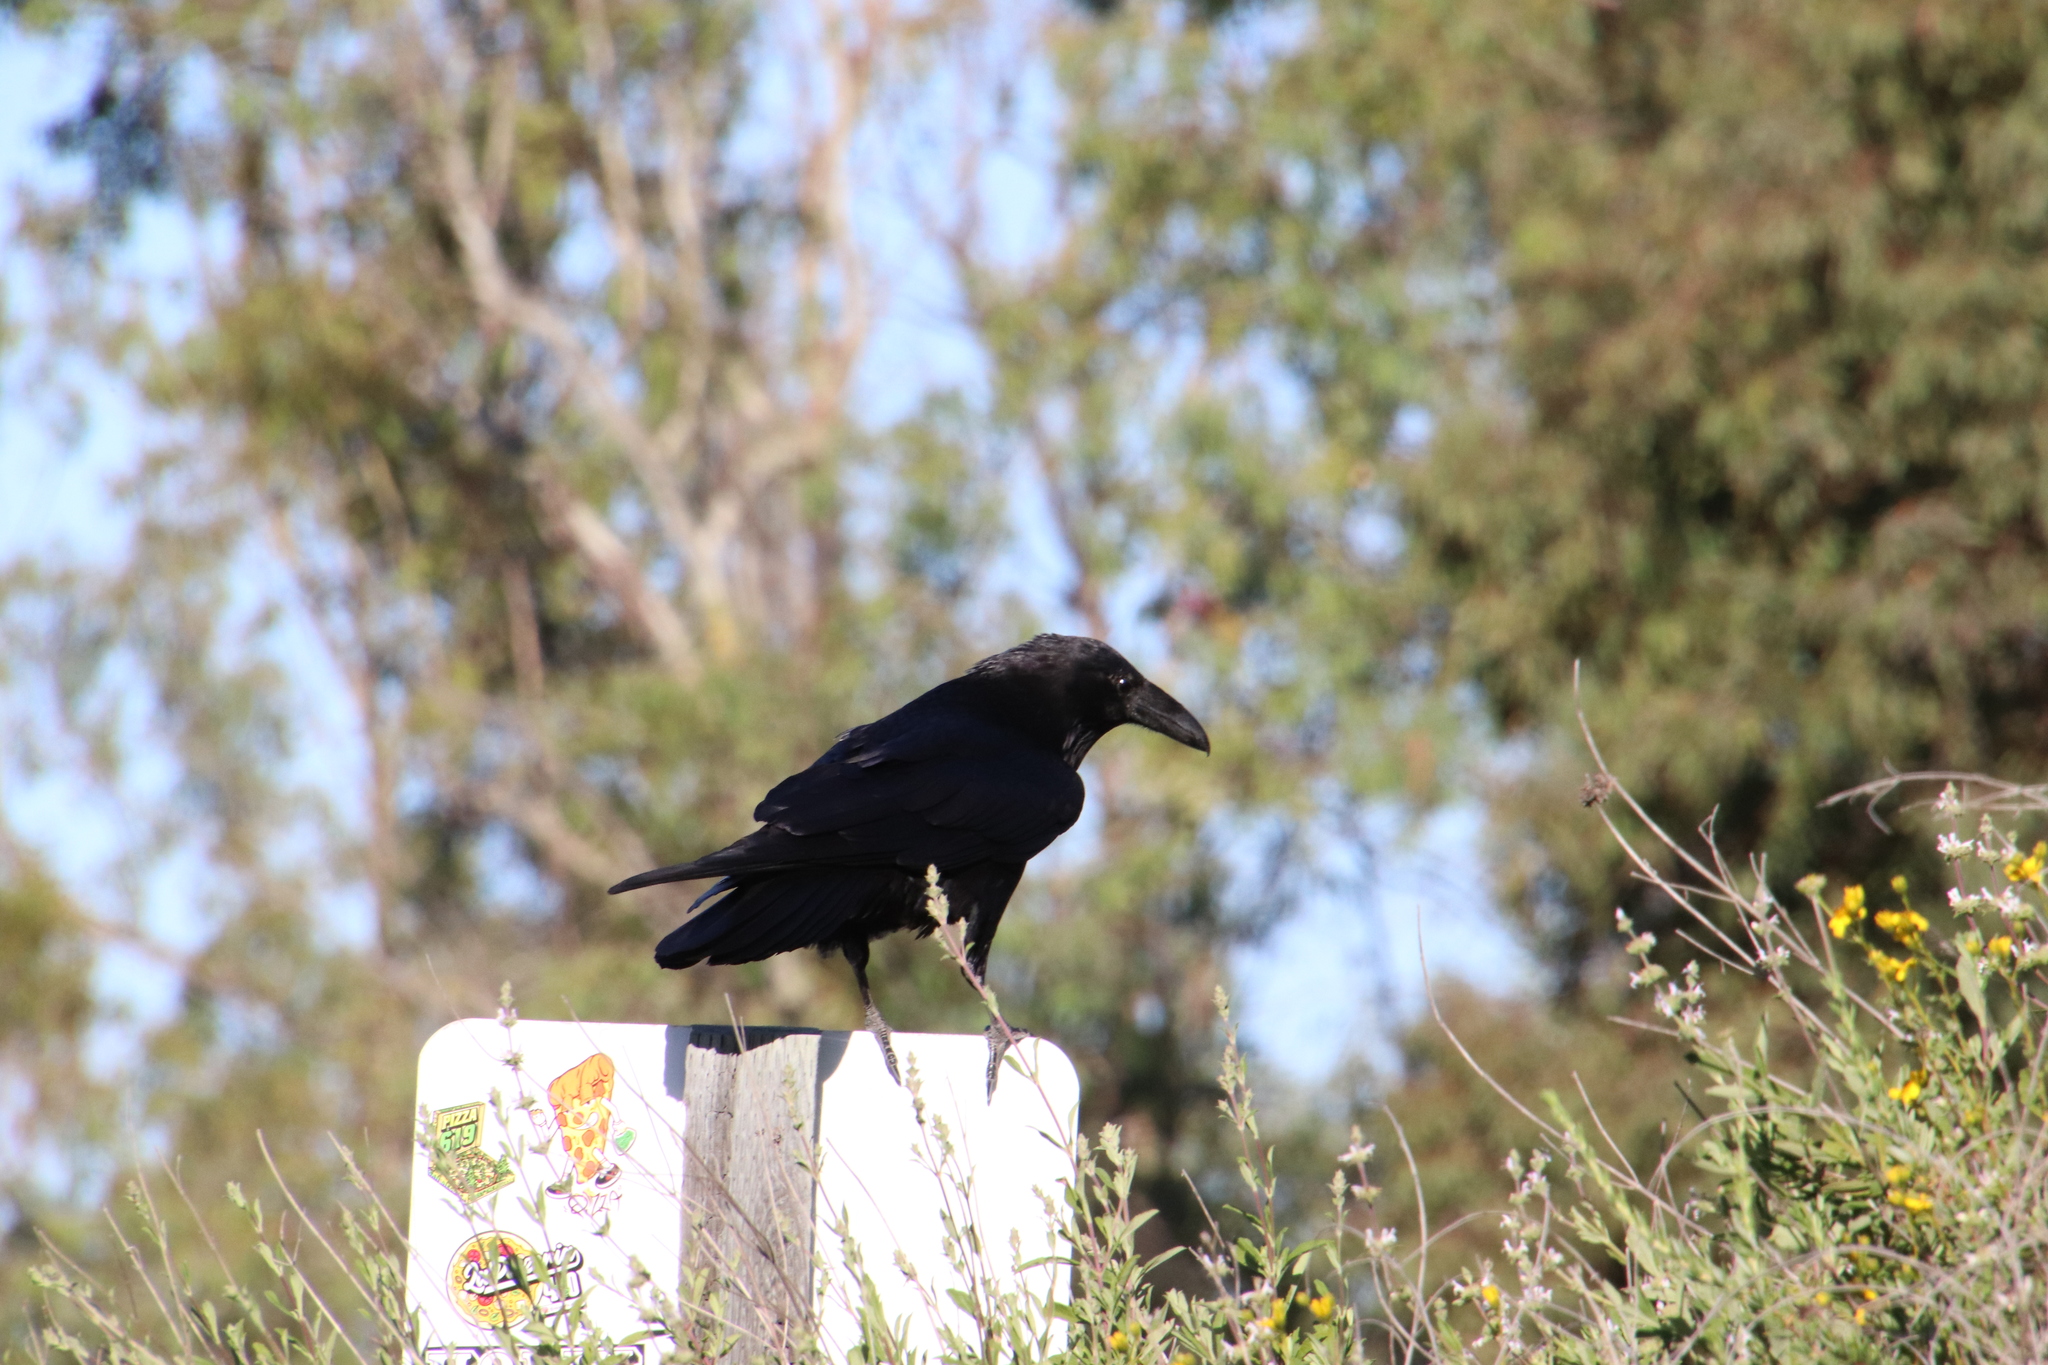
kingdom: Animalia
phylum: Chordata
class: Aves
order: Passeriformes
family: Corvidae
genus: Corvus
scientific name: Corvus corax
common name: Common raven
